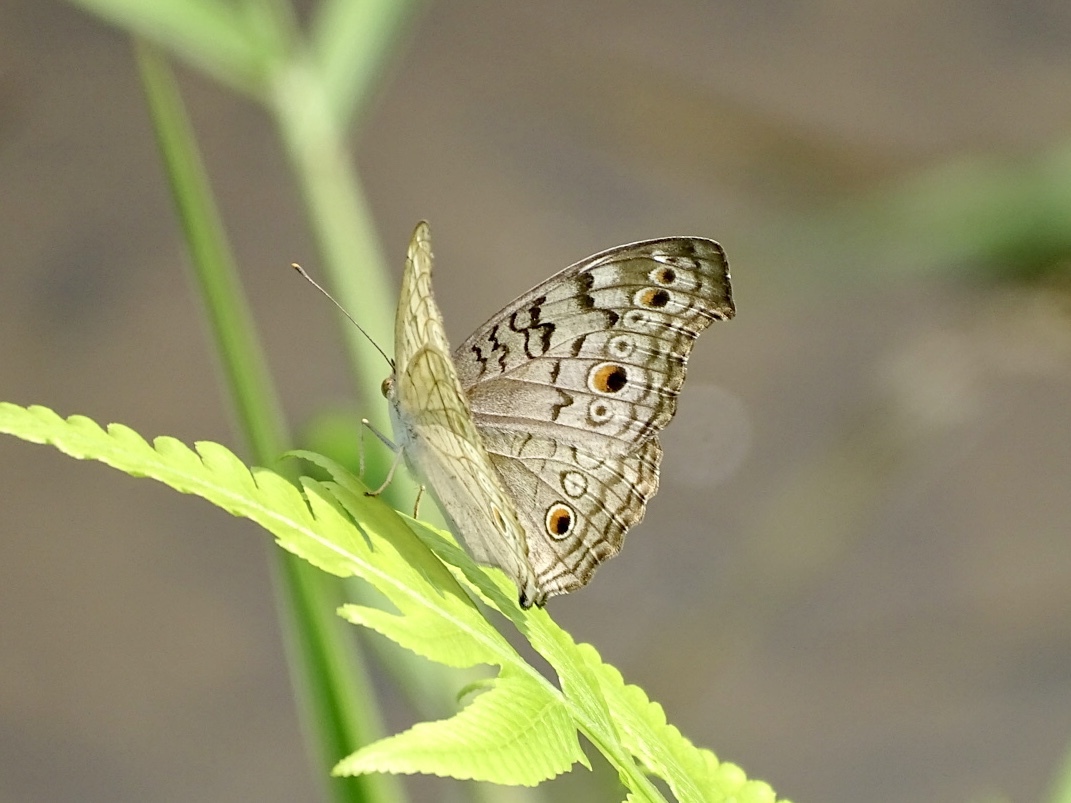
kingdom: Animalia
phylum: Arthropoda
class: Insecta
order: Lepidoptera
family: Nymphalidae
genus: Junonia
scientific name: Junonia atlites
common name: Grey pansy
